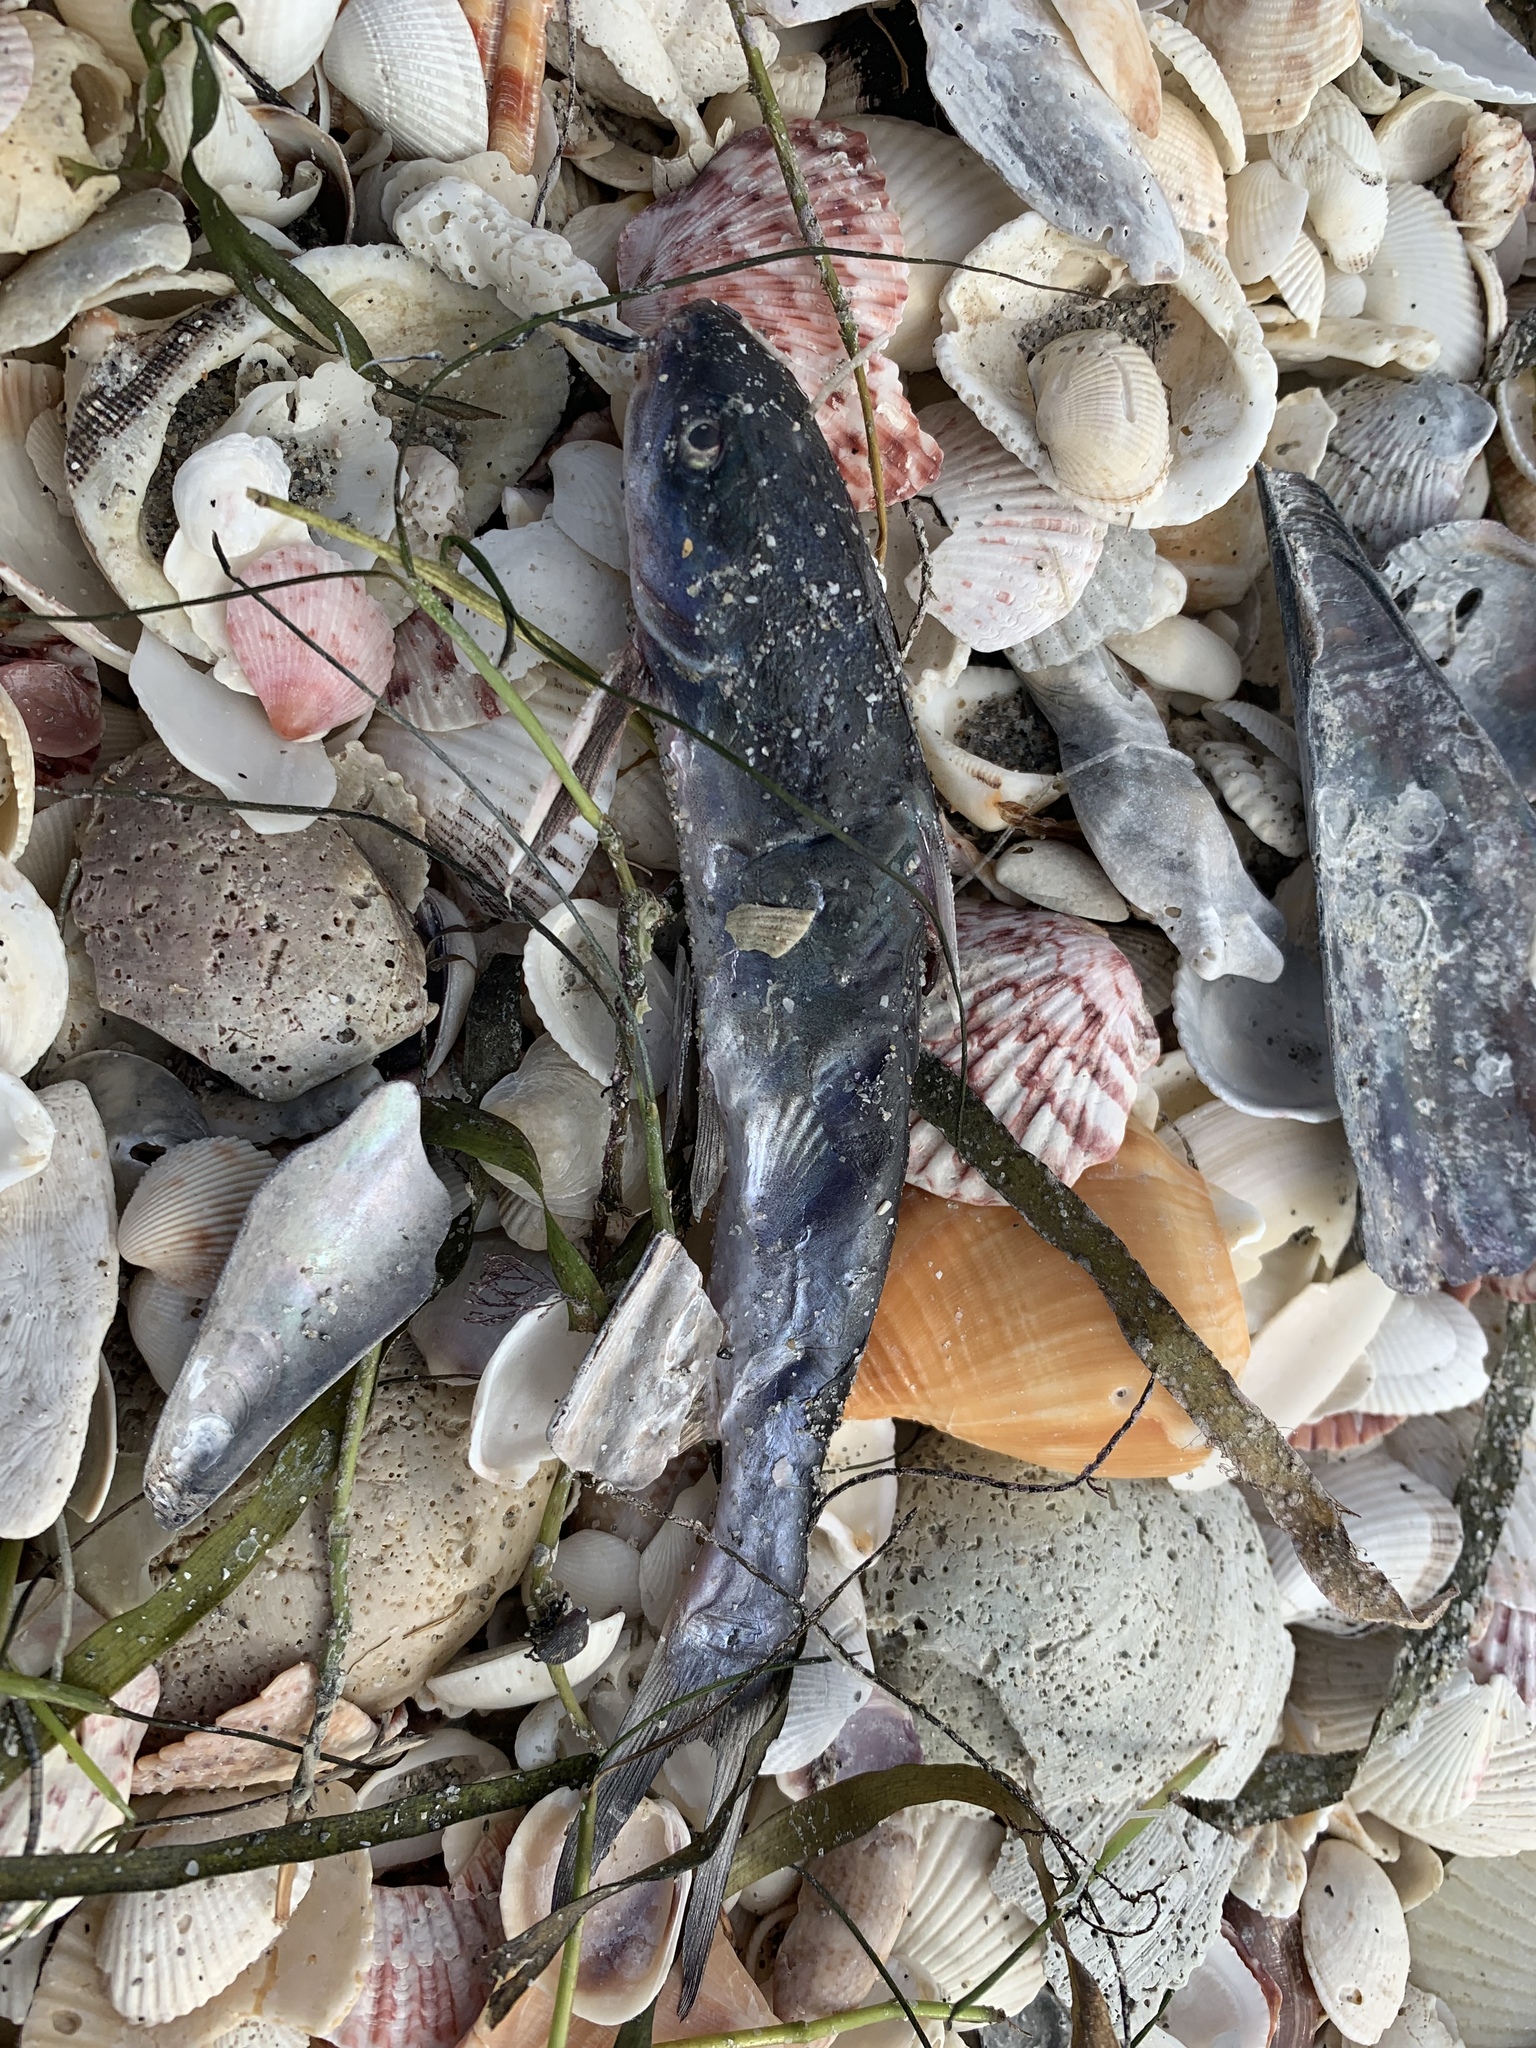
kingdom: Animalia
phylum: Chordata
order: Siluriformes
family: Ariidae
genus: Ariopsis
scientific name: Ariopsis felis
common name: Hardhead catfish
